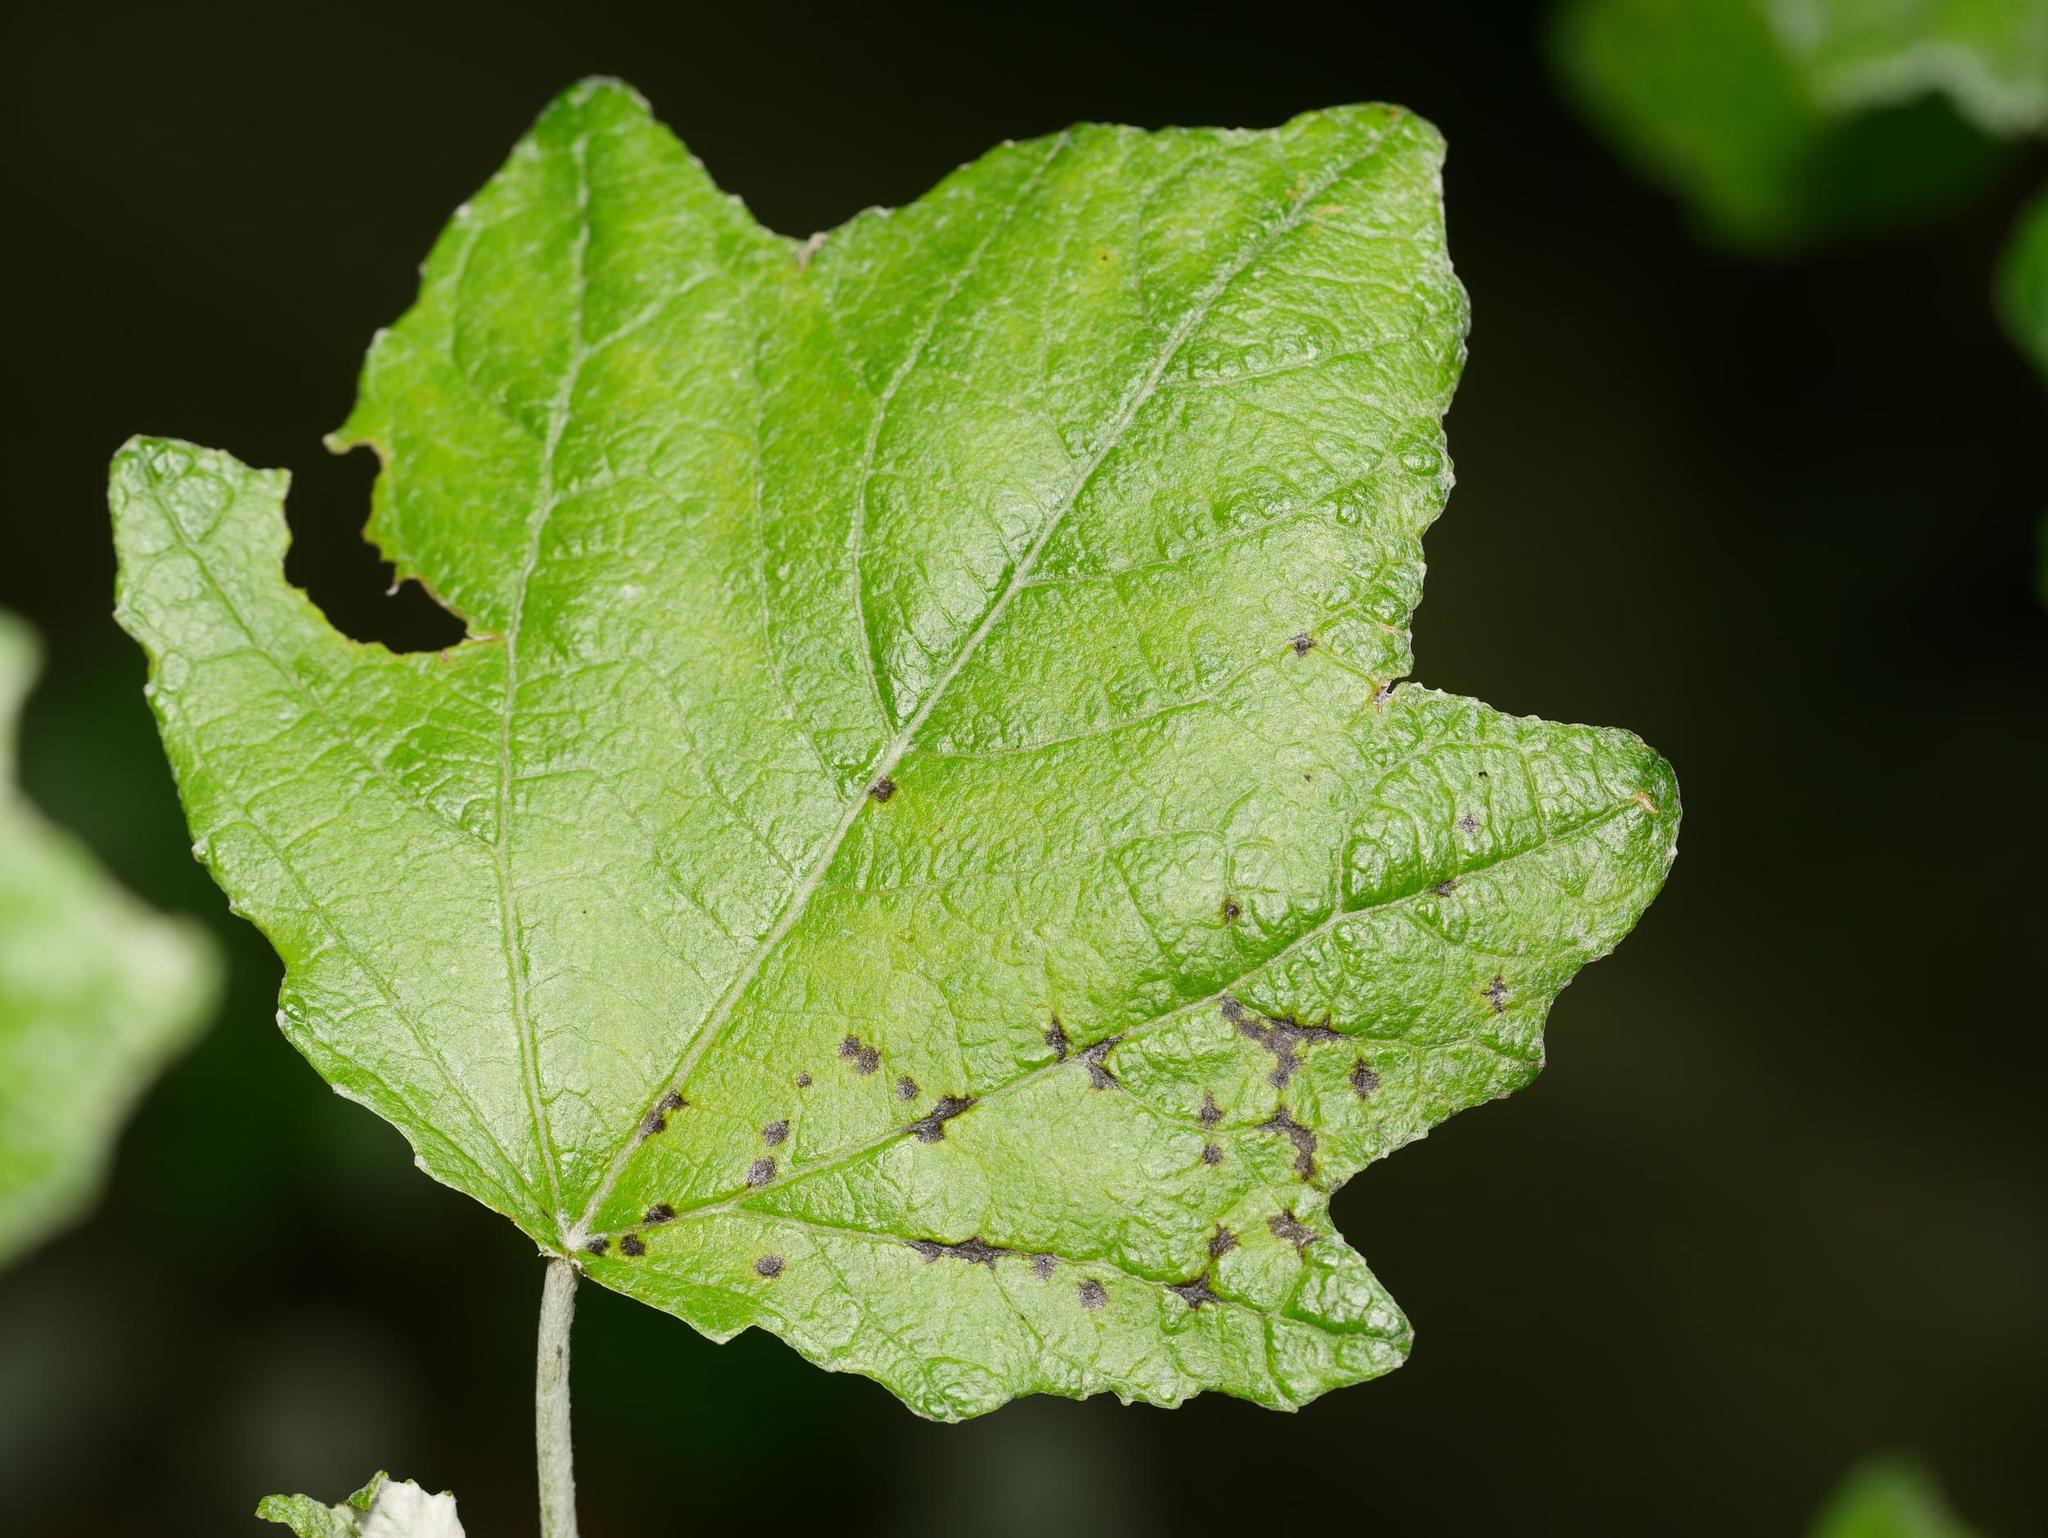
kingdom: Plantae
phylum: Tracheophyta
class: Magnoliopsida
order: Malpighiales
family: Salicaceae
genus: Populus
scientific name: Populus alba
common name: White poplar
